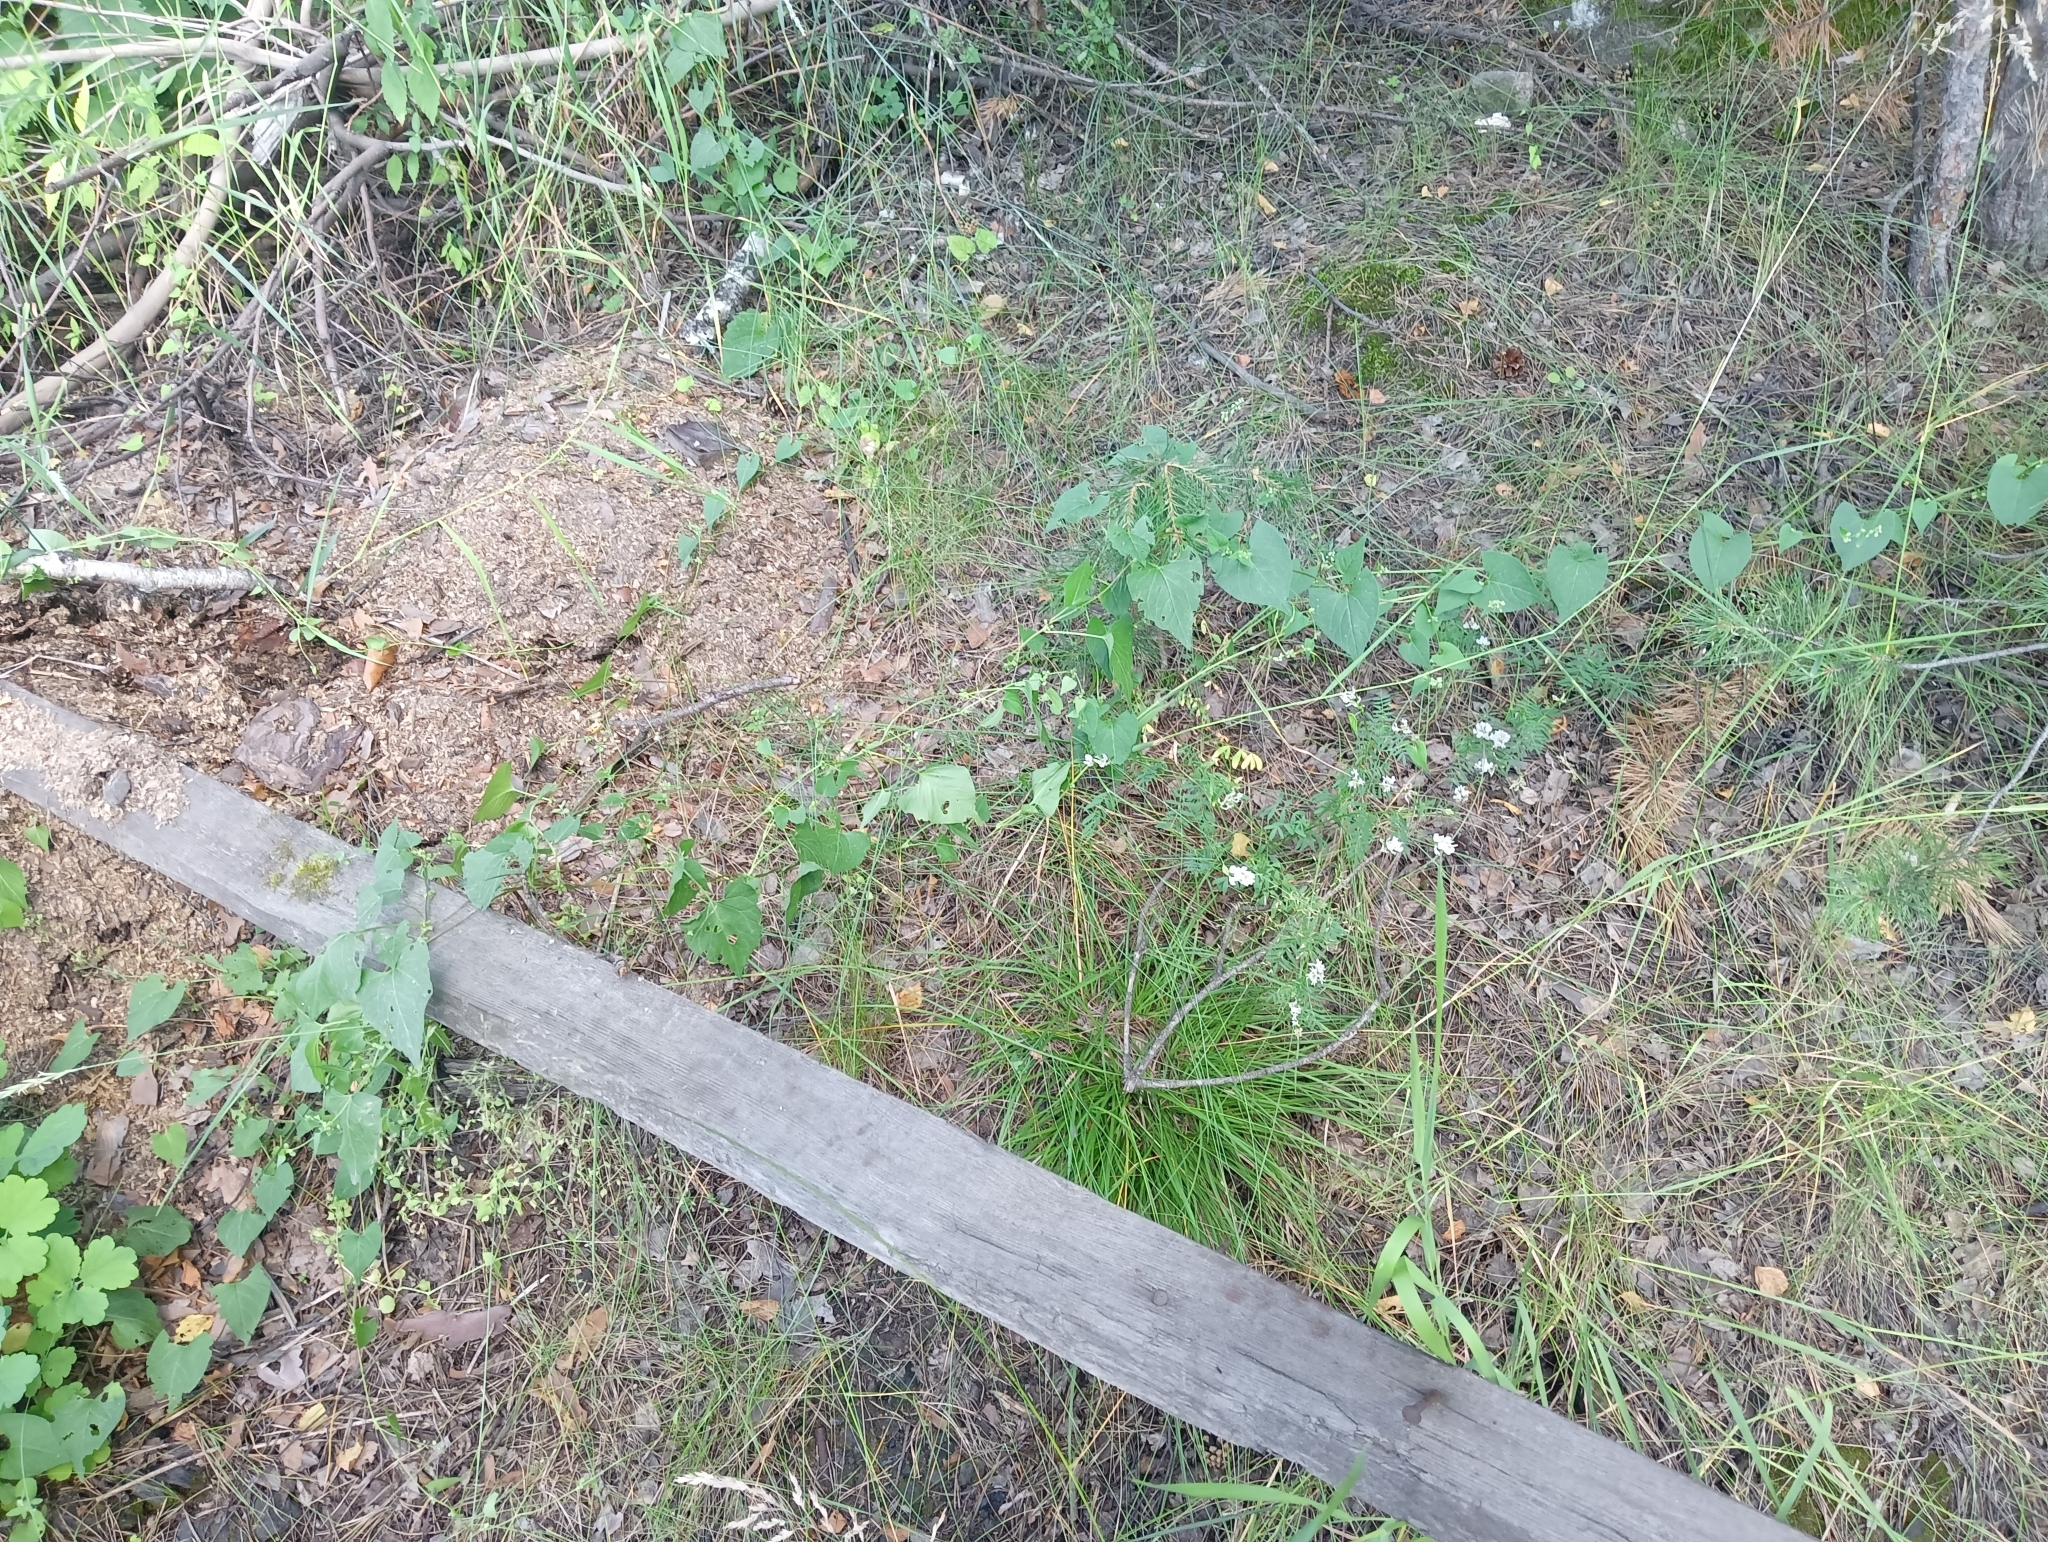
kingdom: Plantae
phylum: Tracheophyta
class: Magnoliopsida
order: Fabales
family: Fabaceae
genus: Astragalus
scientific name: Astragalus clerceanus
